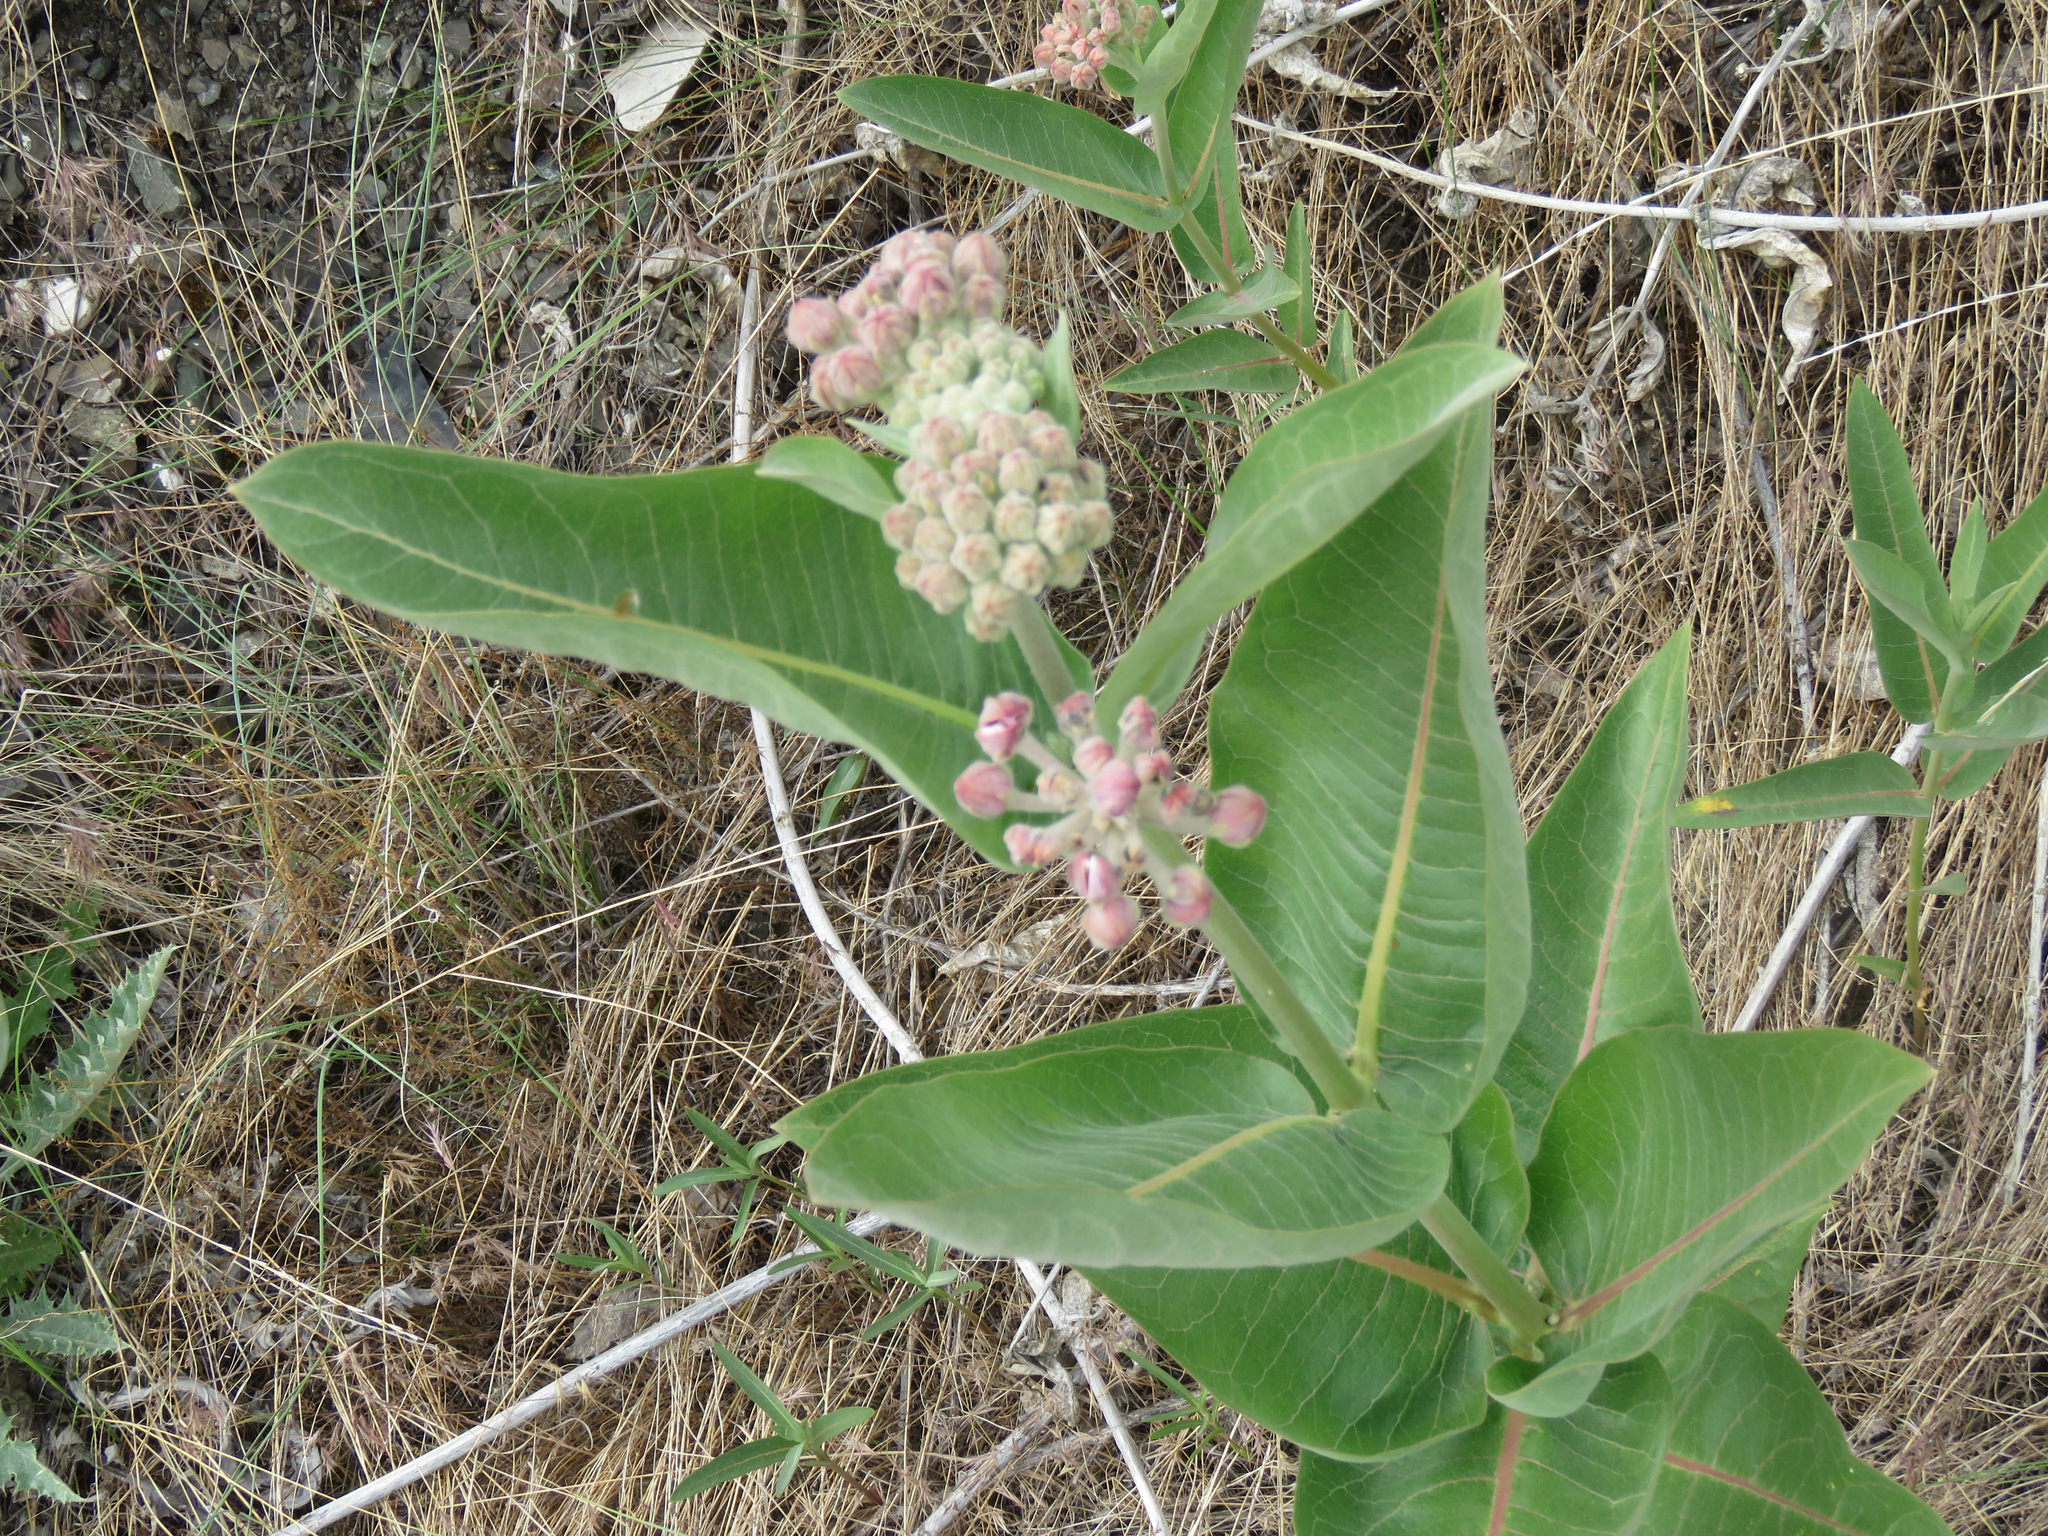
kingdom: Plantae
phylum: Tracheophyta
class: Magnoliopsida
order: Gentianales
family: Apocynaceae
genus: Asclepias
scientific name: Asclepias speciosa
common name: Showy milkweed
